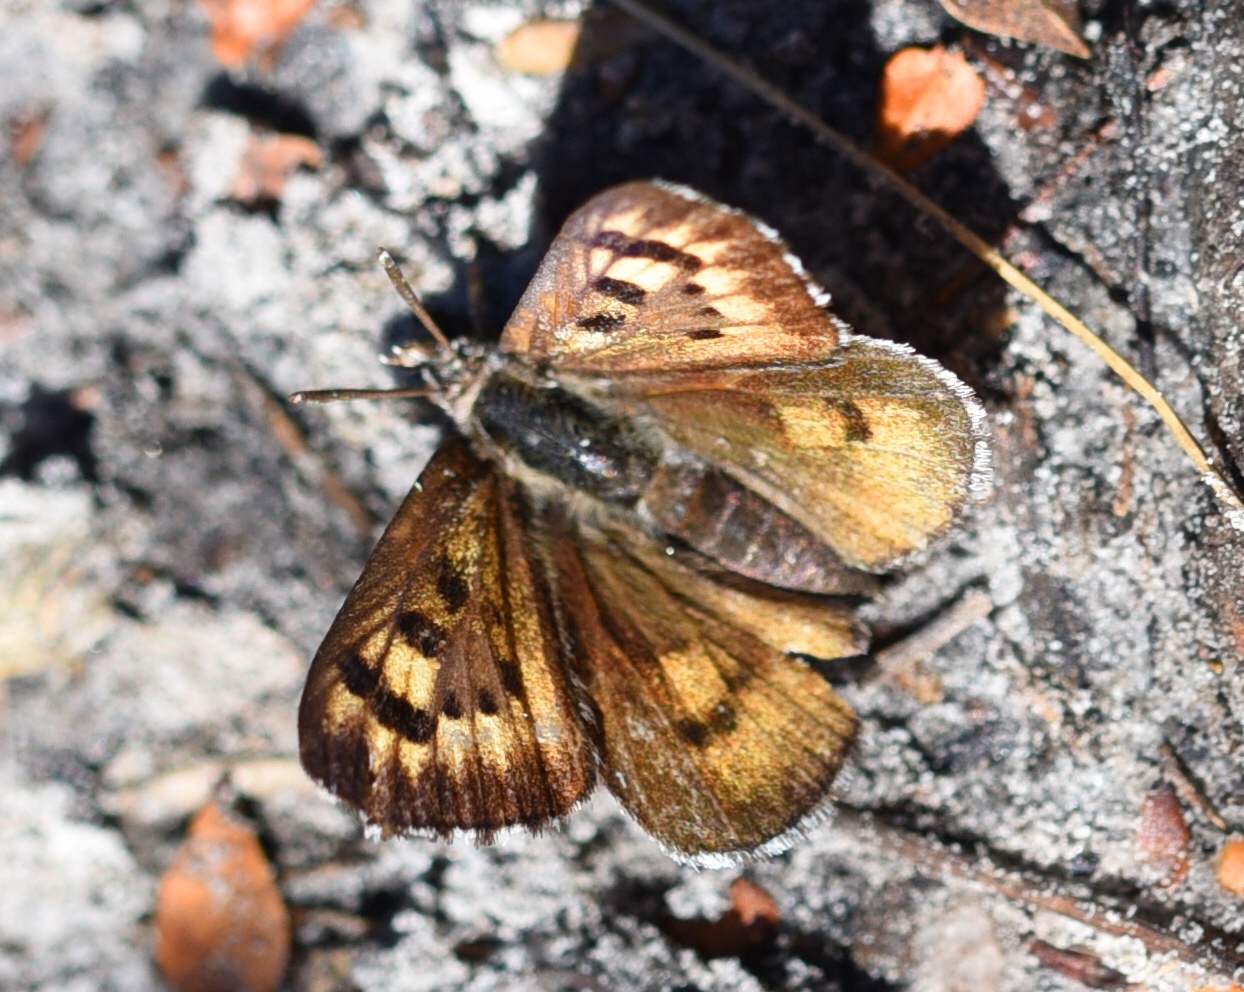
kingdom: Animalia
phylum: Arthropoda
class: Insecta
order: Lepidoptera
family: Lycaenidae
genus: Thestor
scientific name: Thestor rossouwi
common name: Rossouw's skolly
